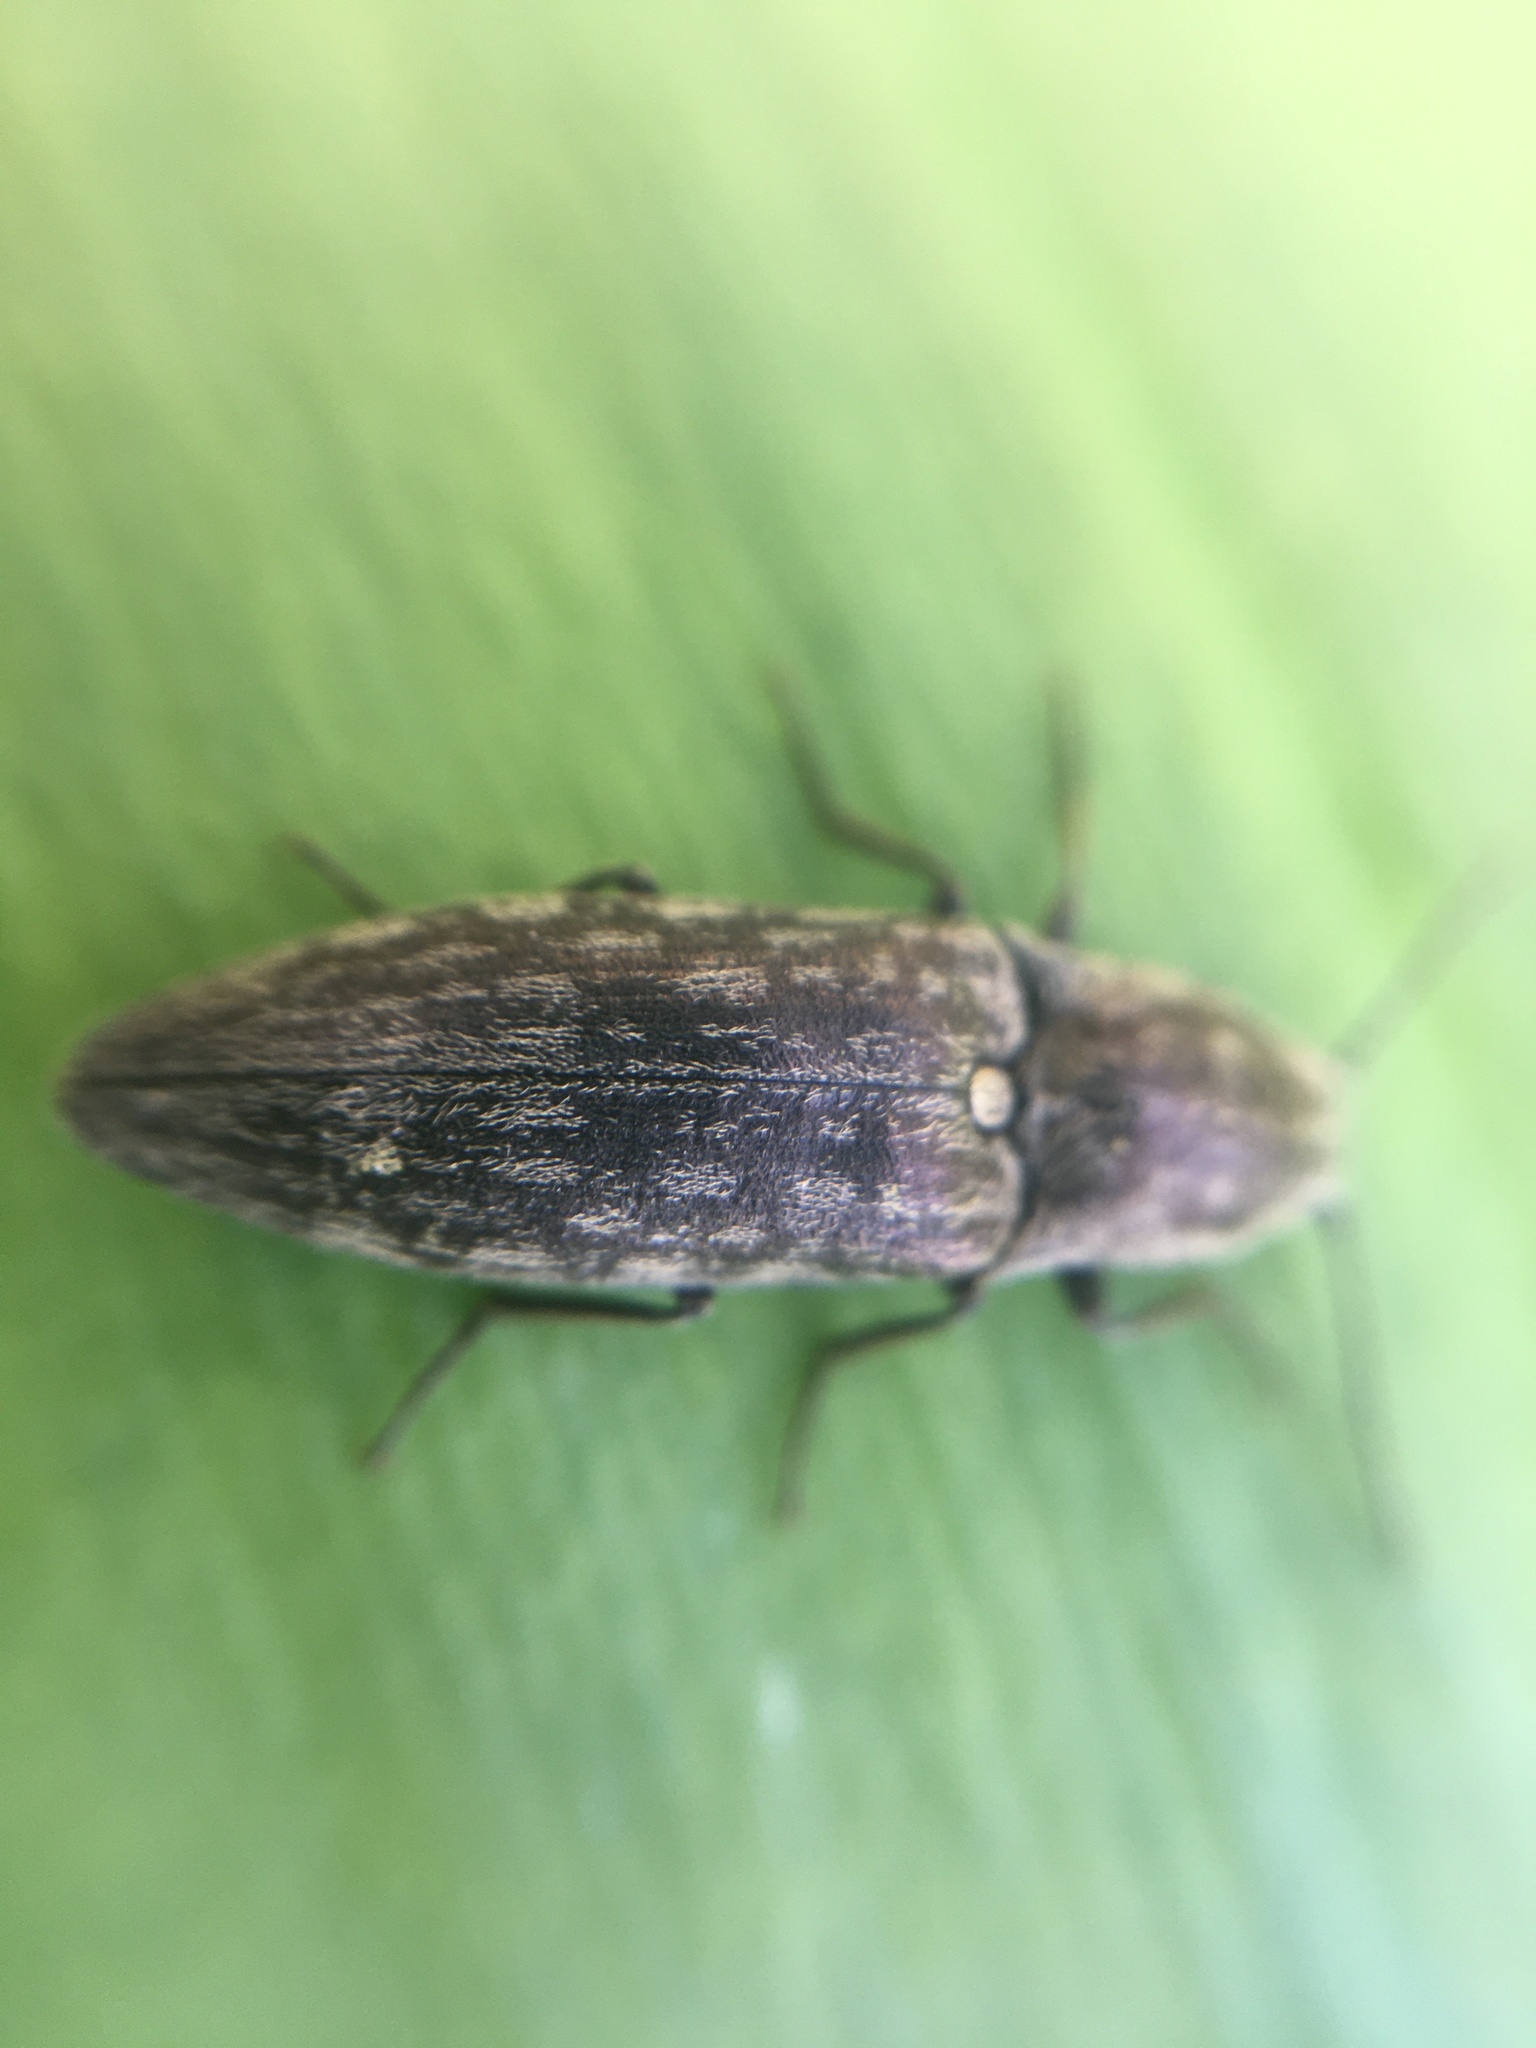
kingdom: Animalia
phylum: Arthropoda
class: Insecta
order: Coleoptera
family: Elateridae
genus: Actenicerus
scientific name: Actenicerus sjaelandicus
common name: Marsh click beetle
